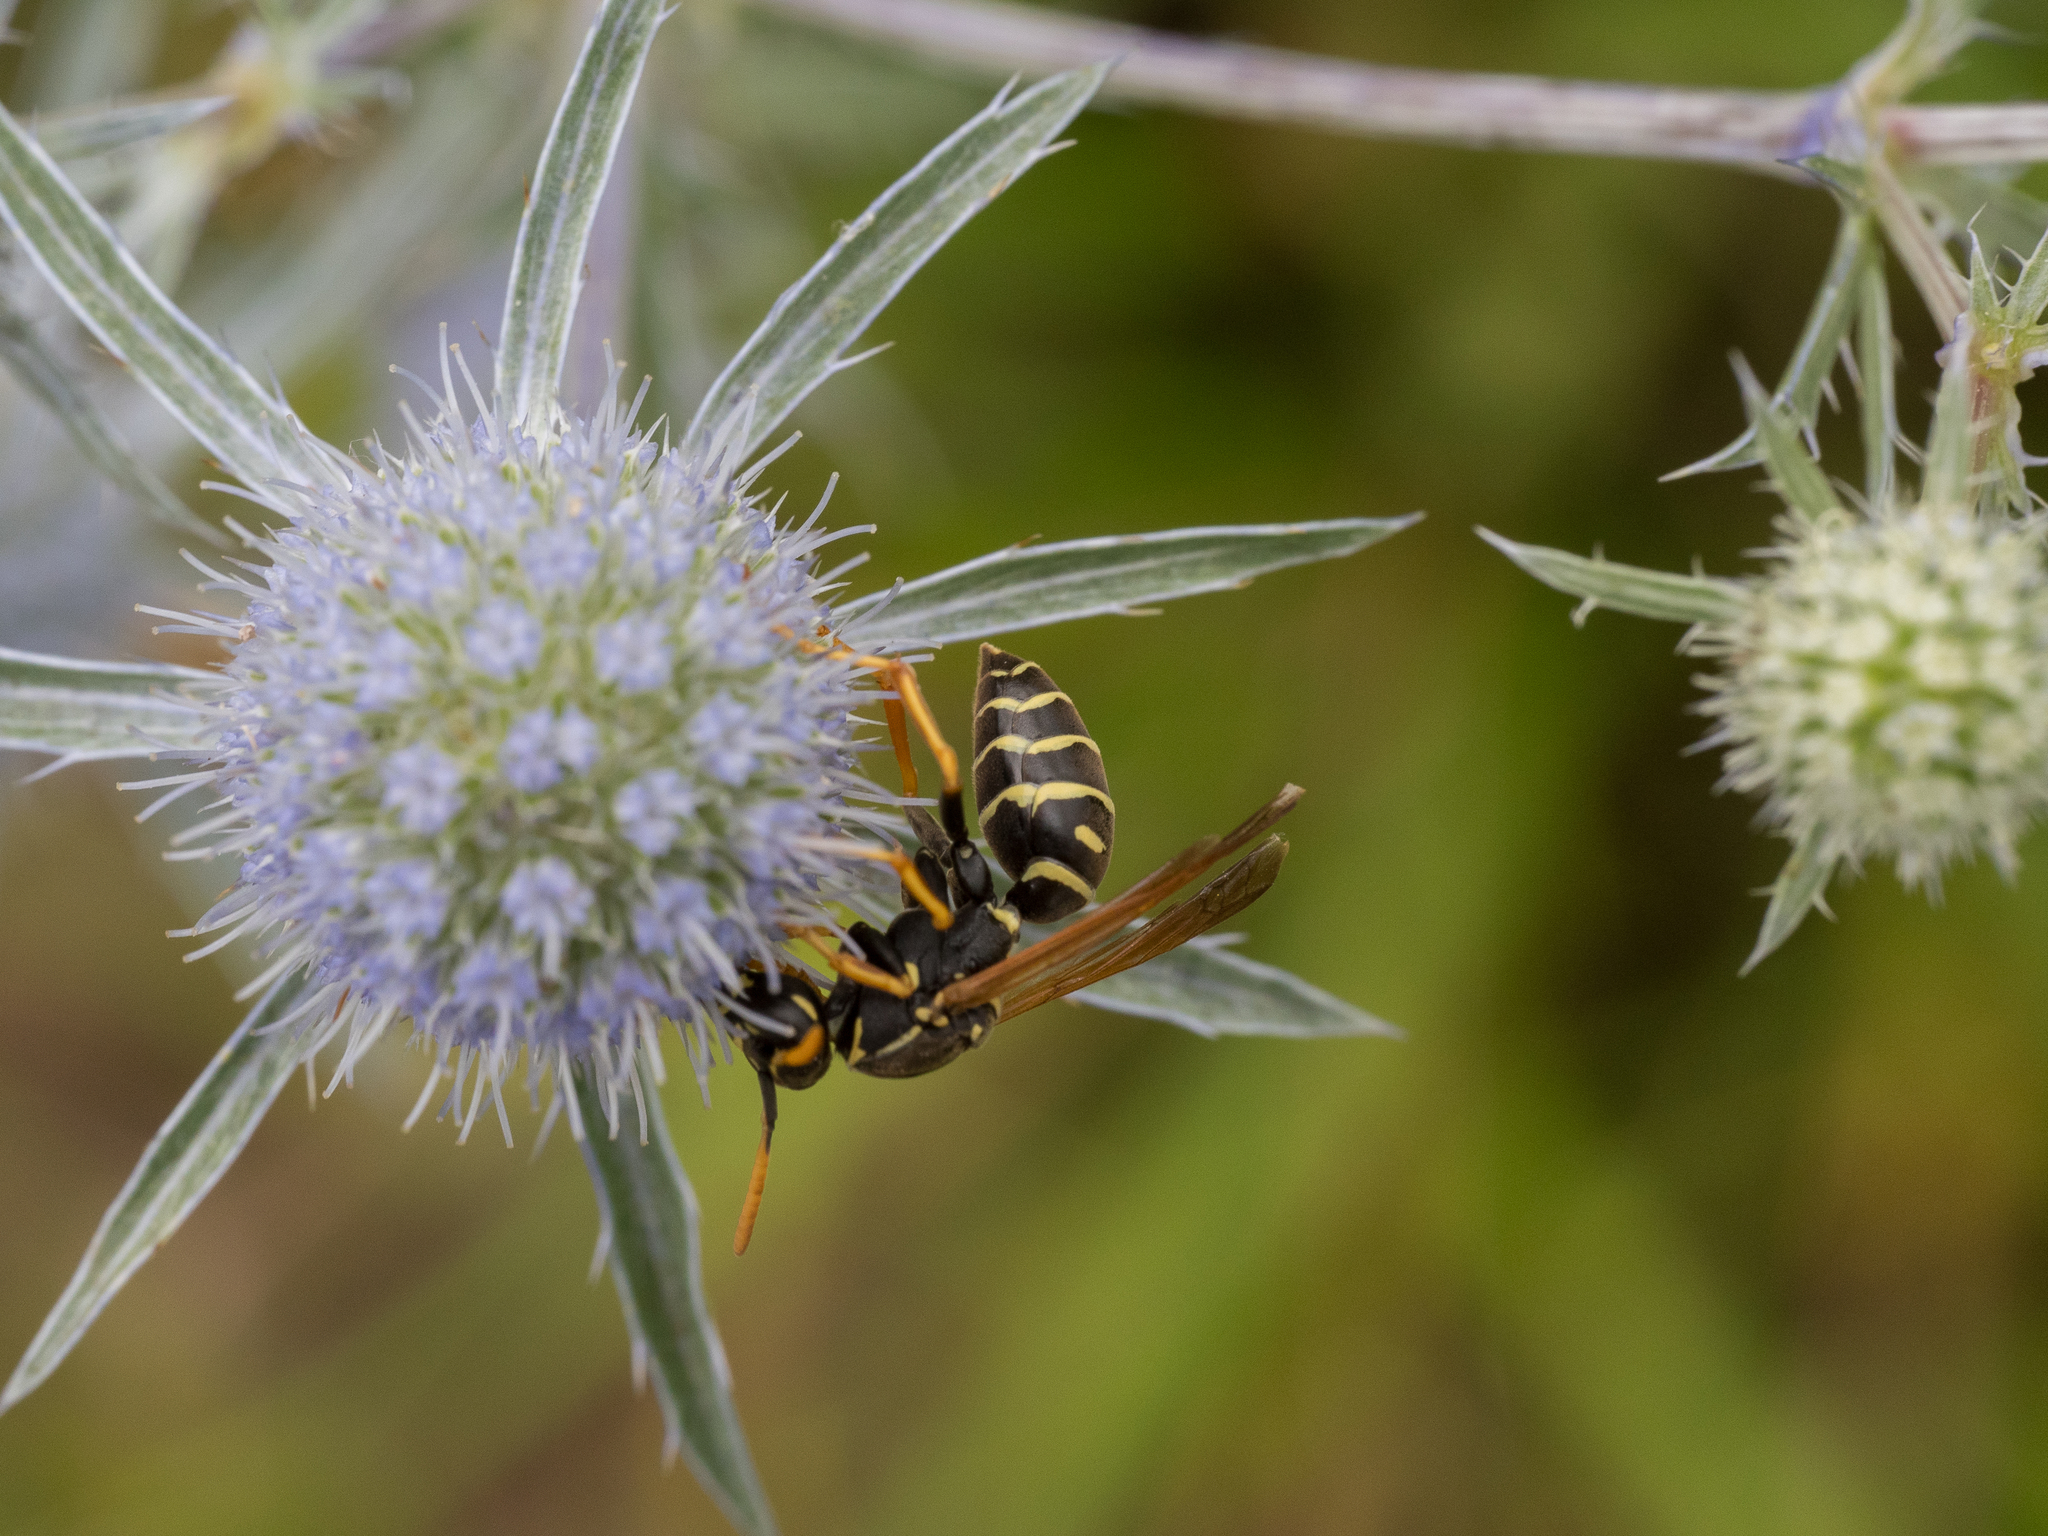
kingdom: Animalia
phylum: Arthropoda
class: Insecta
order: Hymenoptera
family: Eumenidae
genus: Polistes
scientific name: Polistes nimpha
